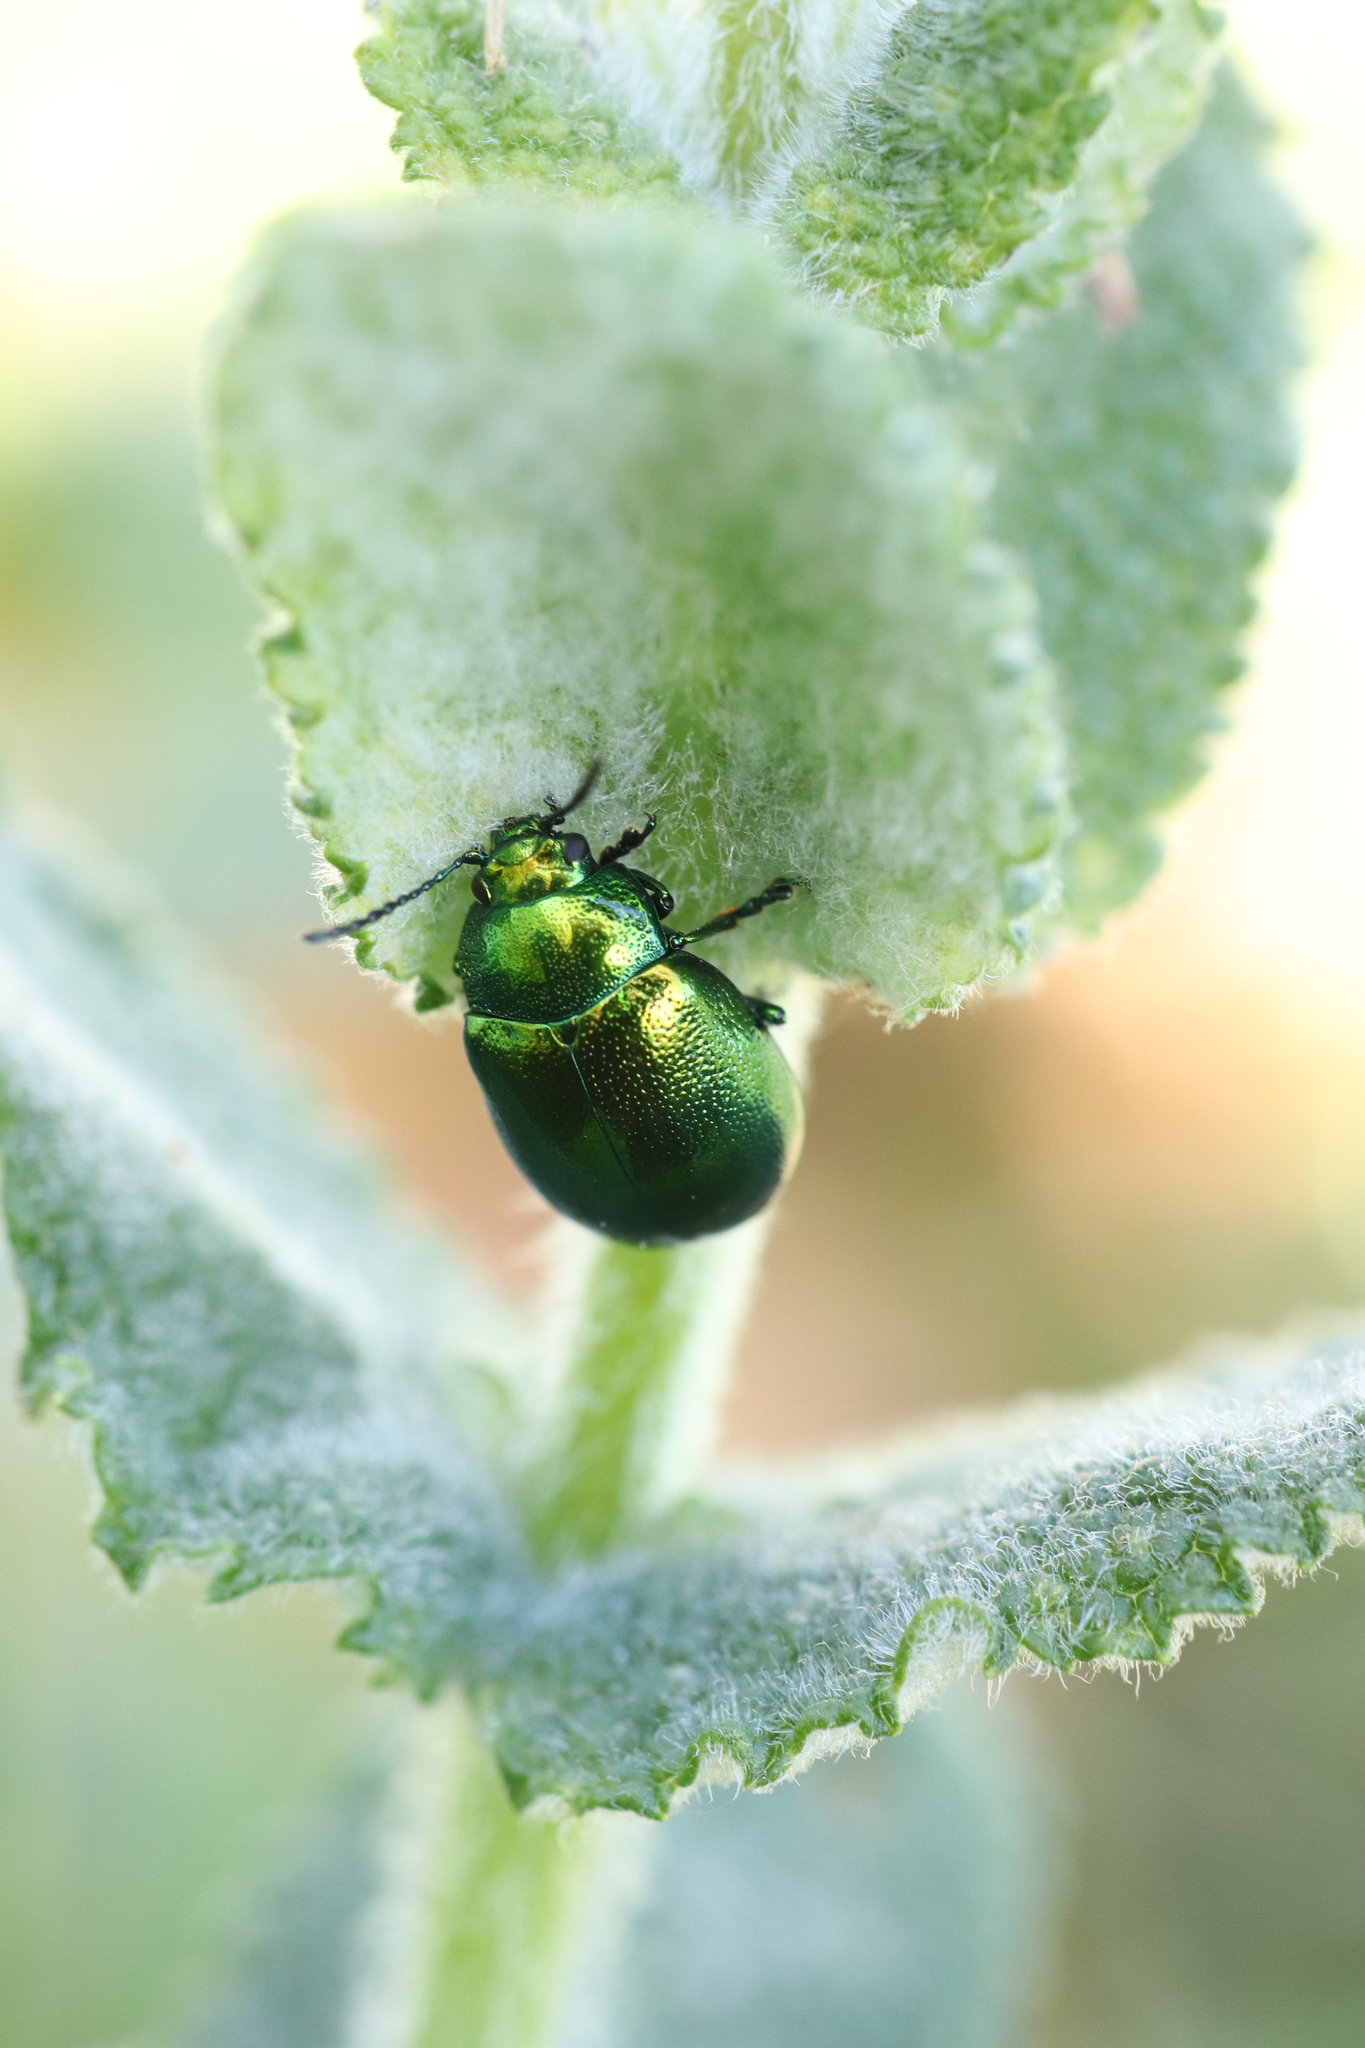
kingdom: Animalia
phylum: Arthropoda
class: Insecta
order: Coleoptera
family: Chrysomelidae
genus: Chrysolina
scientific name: Chrysolina herbacea
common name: Mint leaf beatle
